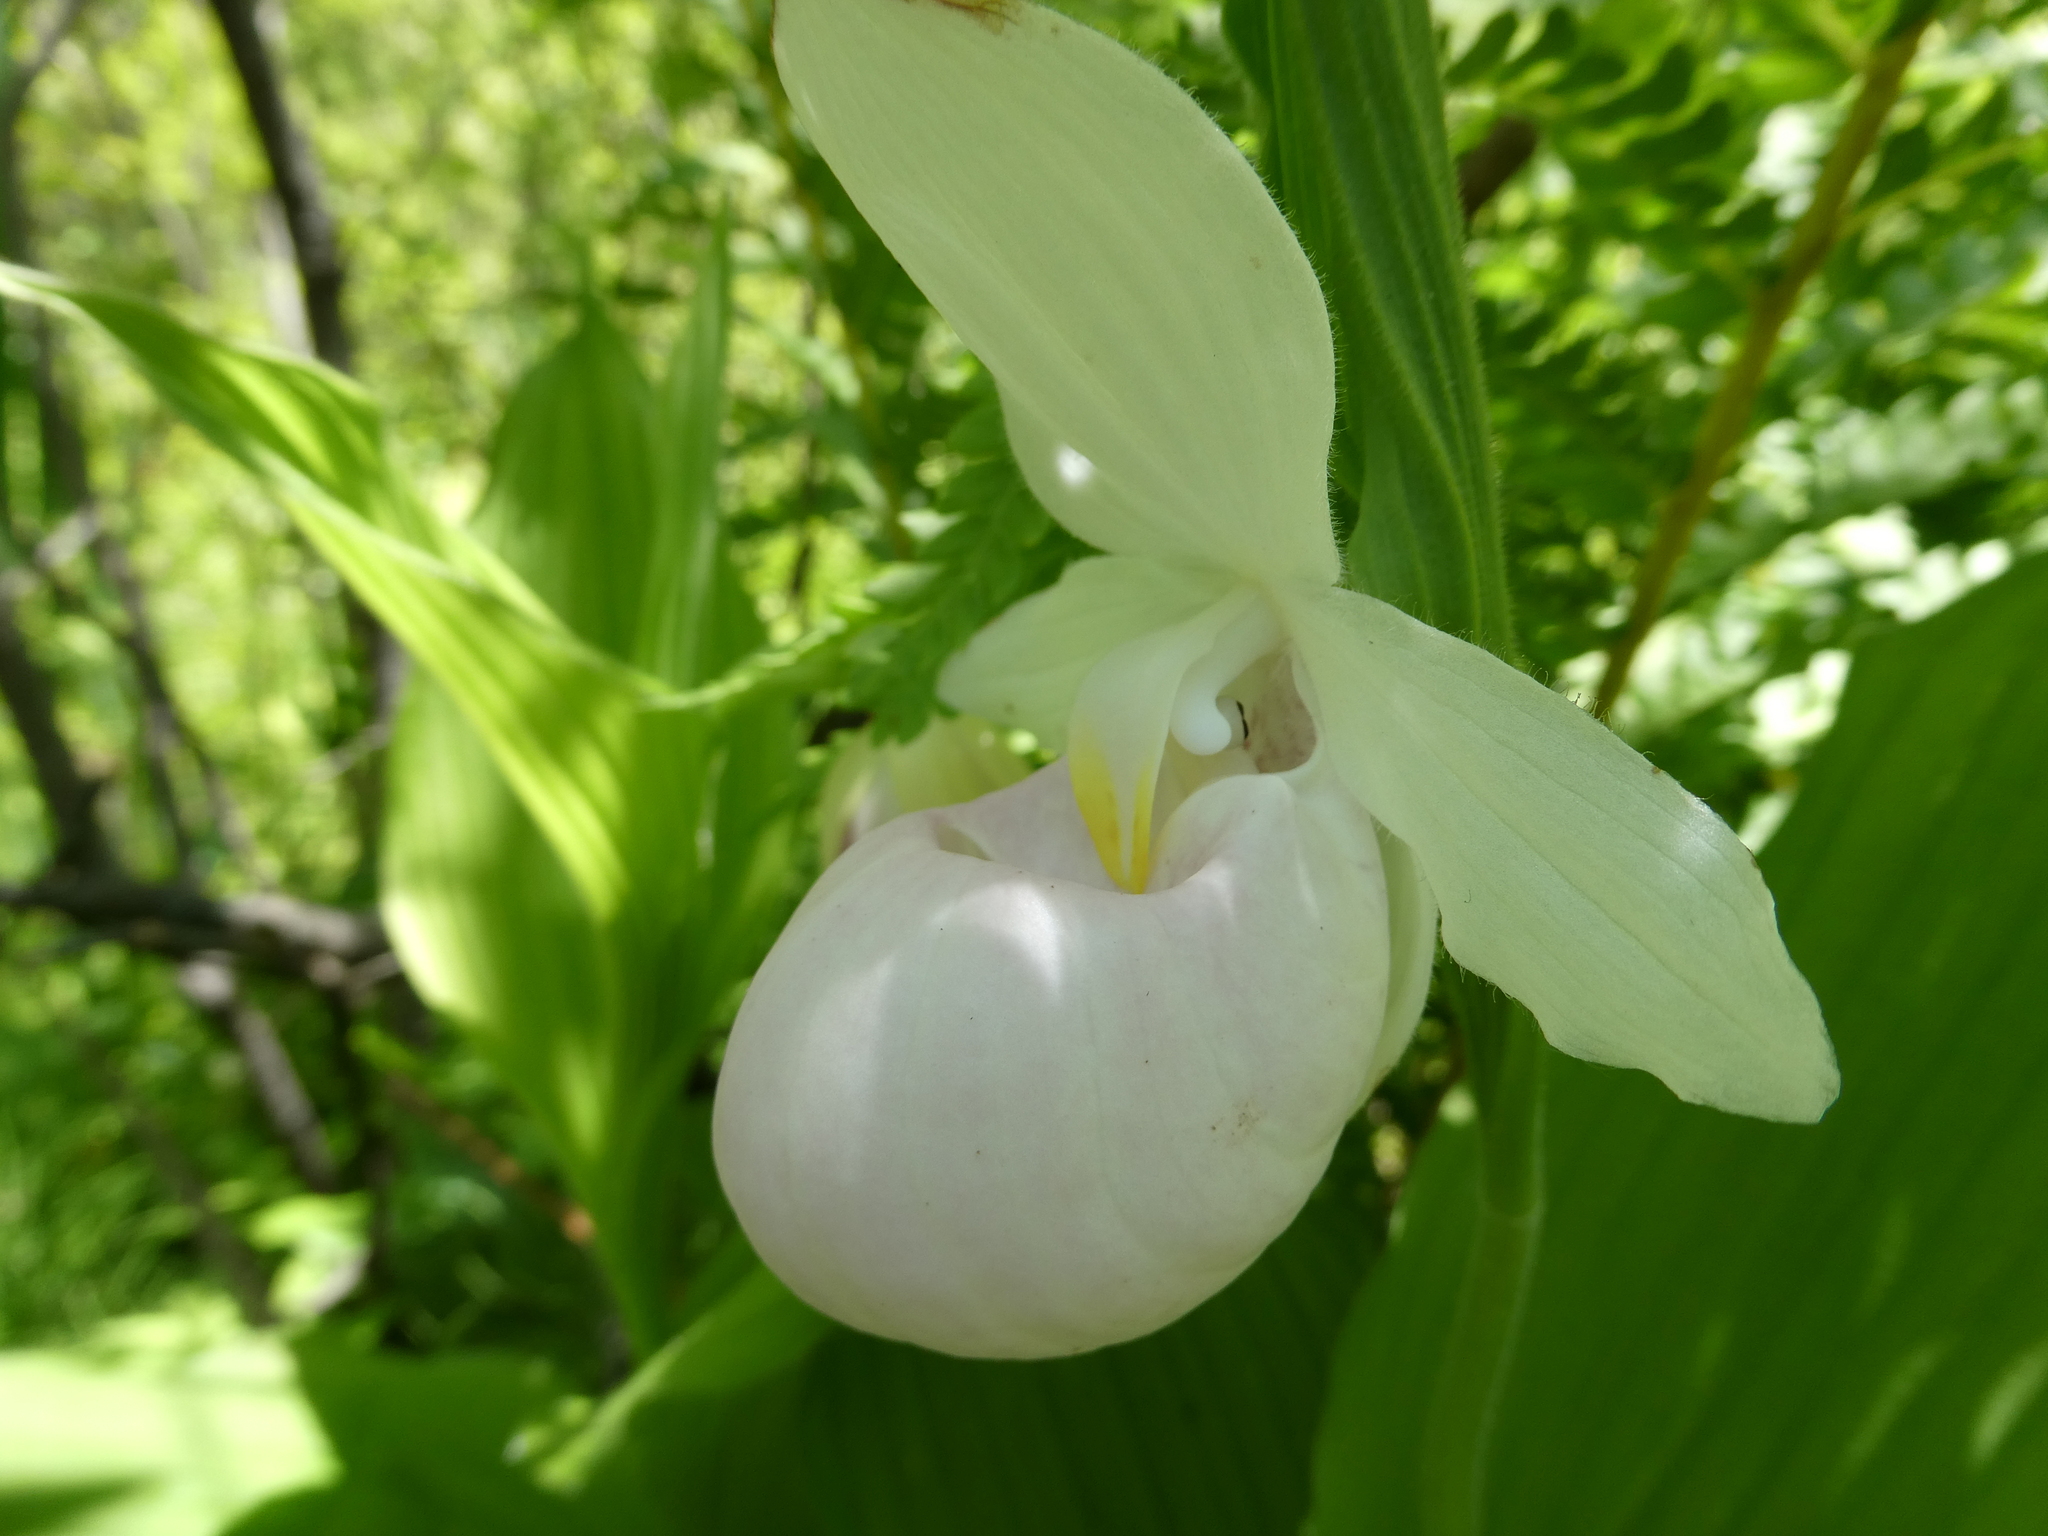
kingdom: Plantae
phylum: Tracheophyta
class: Liliopsida
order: Asparagales
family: Orchidaceae
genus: Cypripedium
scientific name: Cypripedium reginae
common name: Queen lady's-slipper
